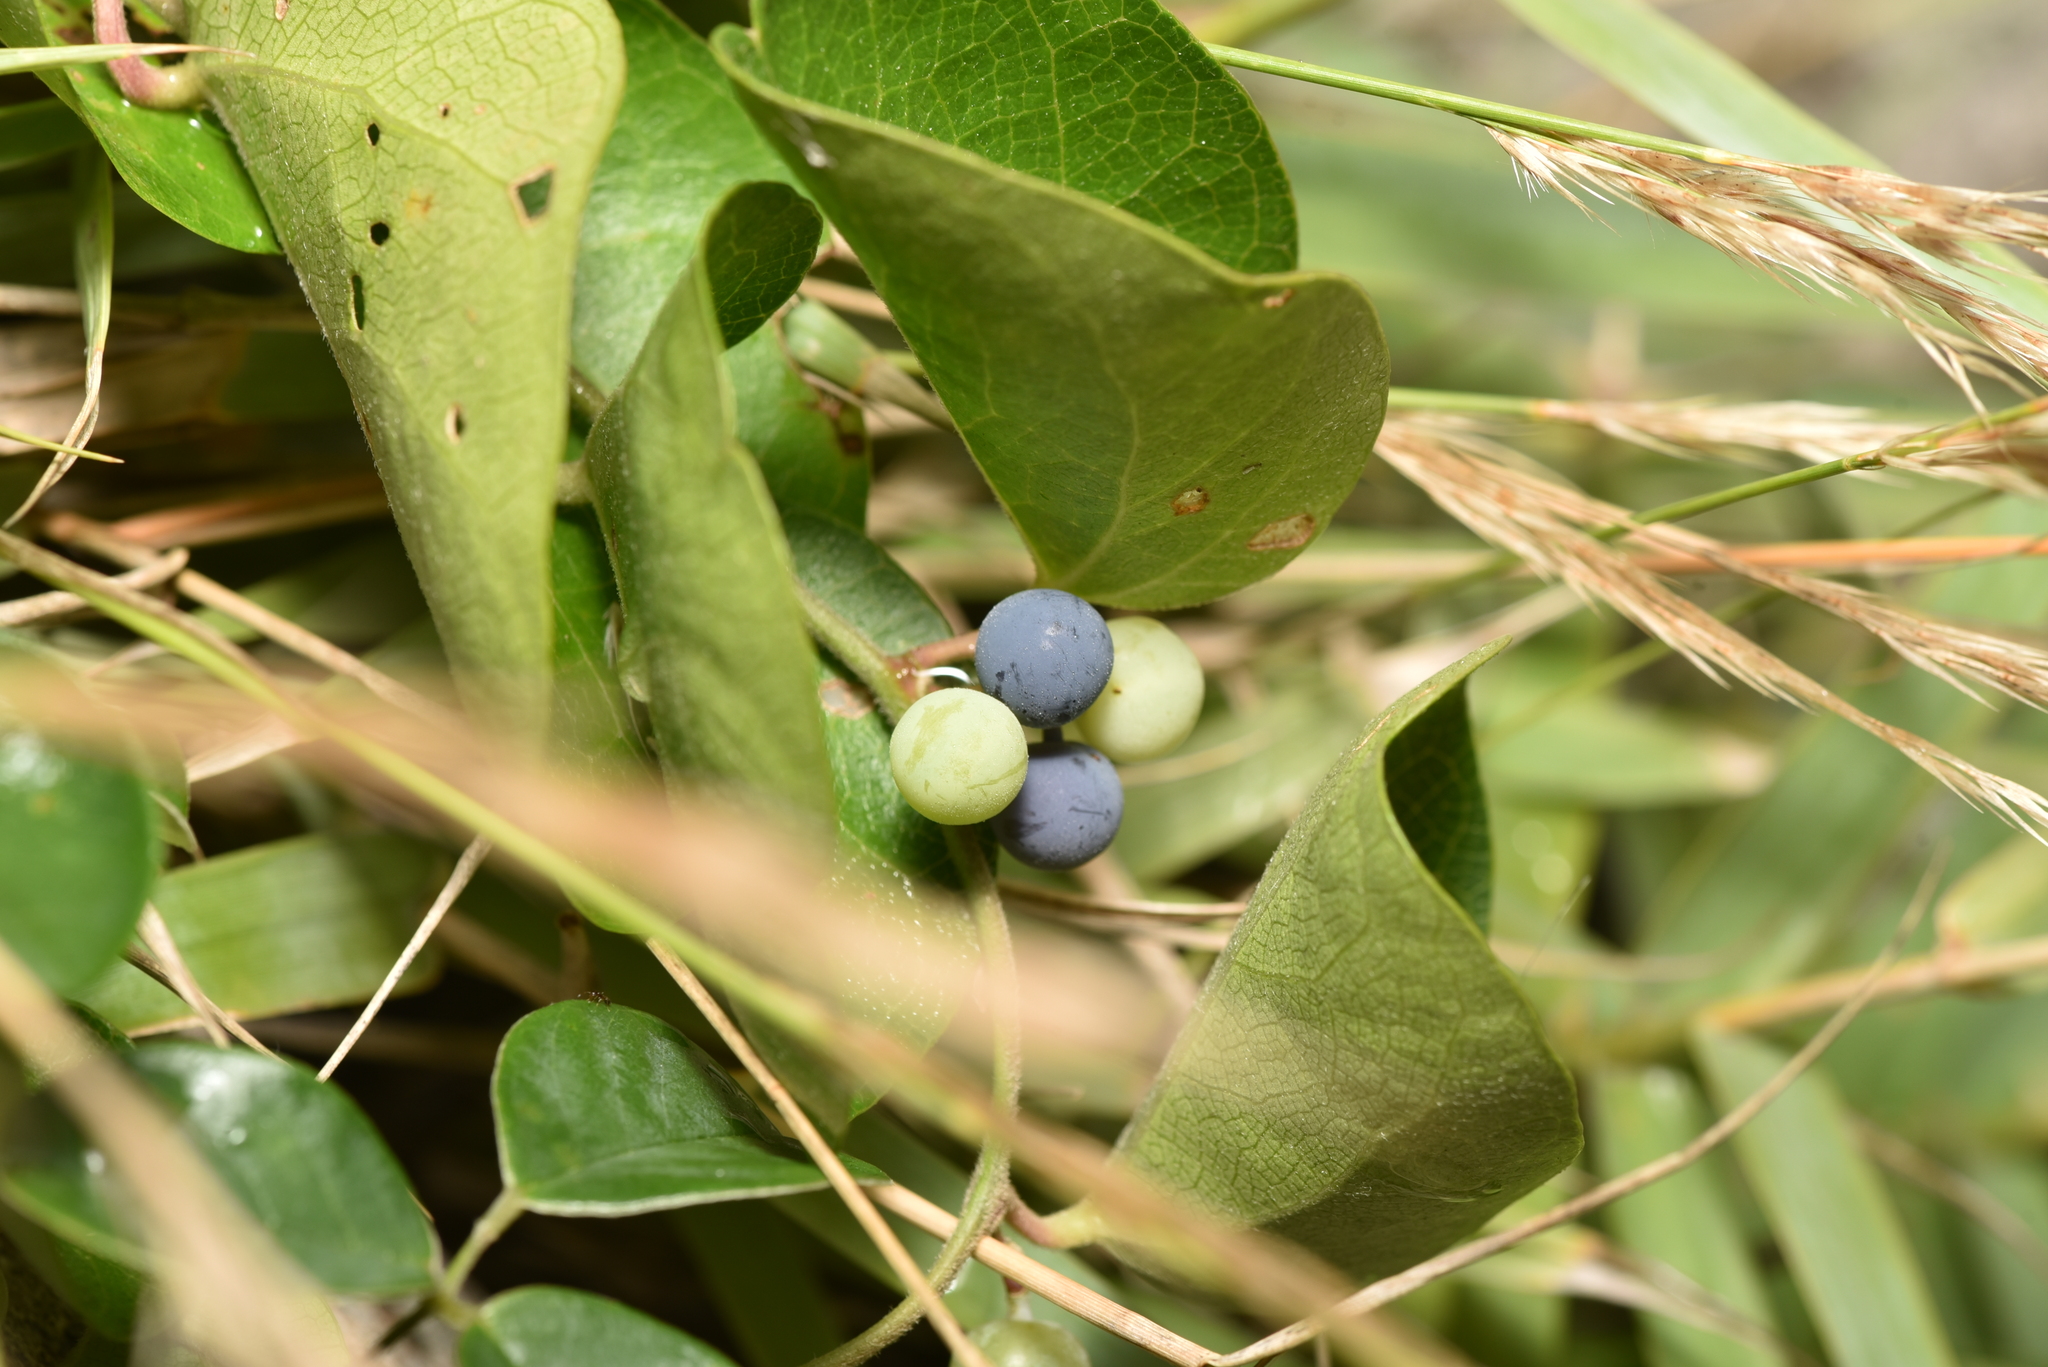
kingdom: Plantae
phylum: Tracheophyta
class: Magnoliopsida
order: Ranunculales
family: Menispermaceae
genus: Cocculus
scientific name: Cocculus orbiculatus
